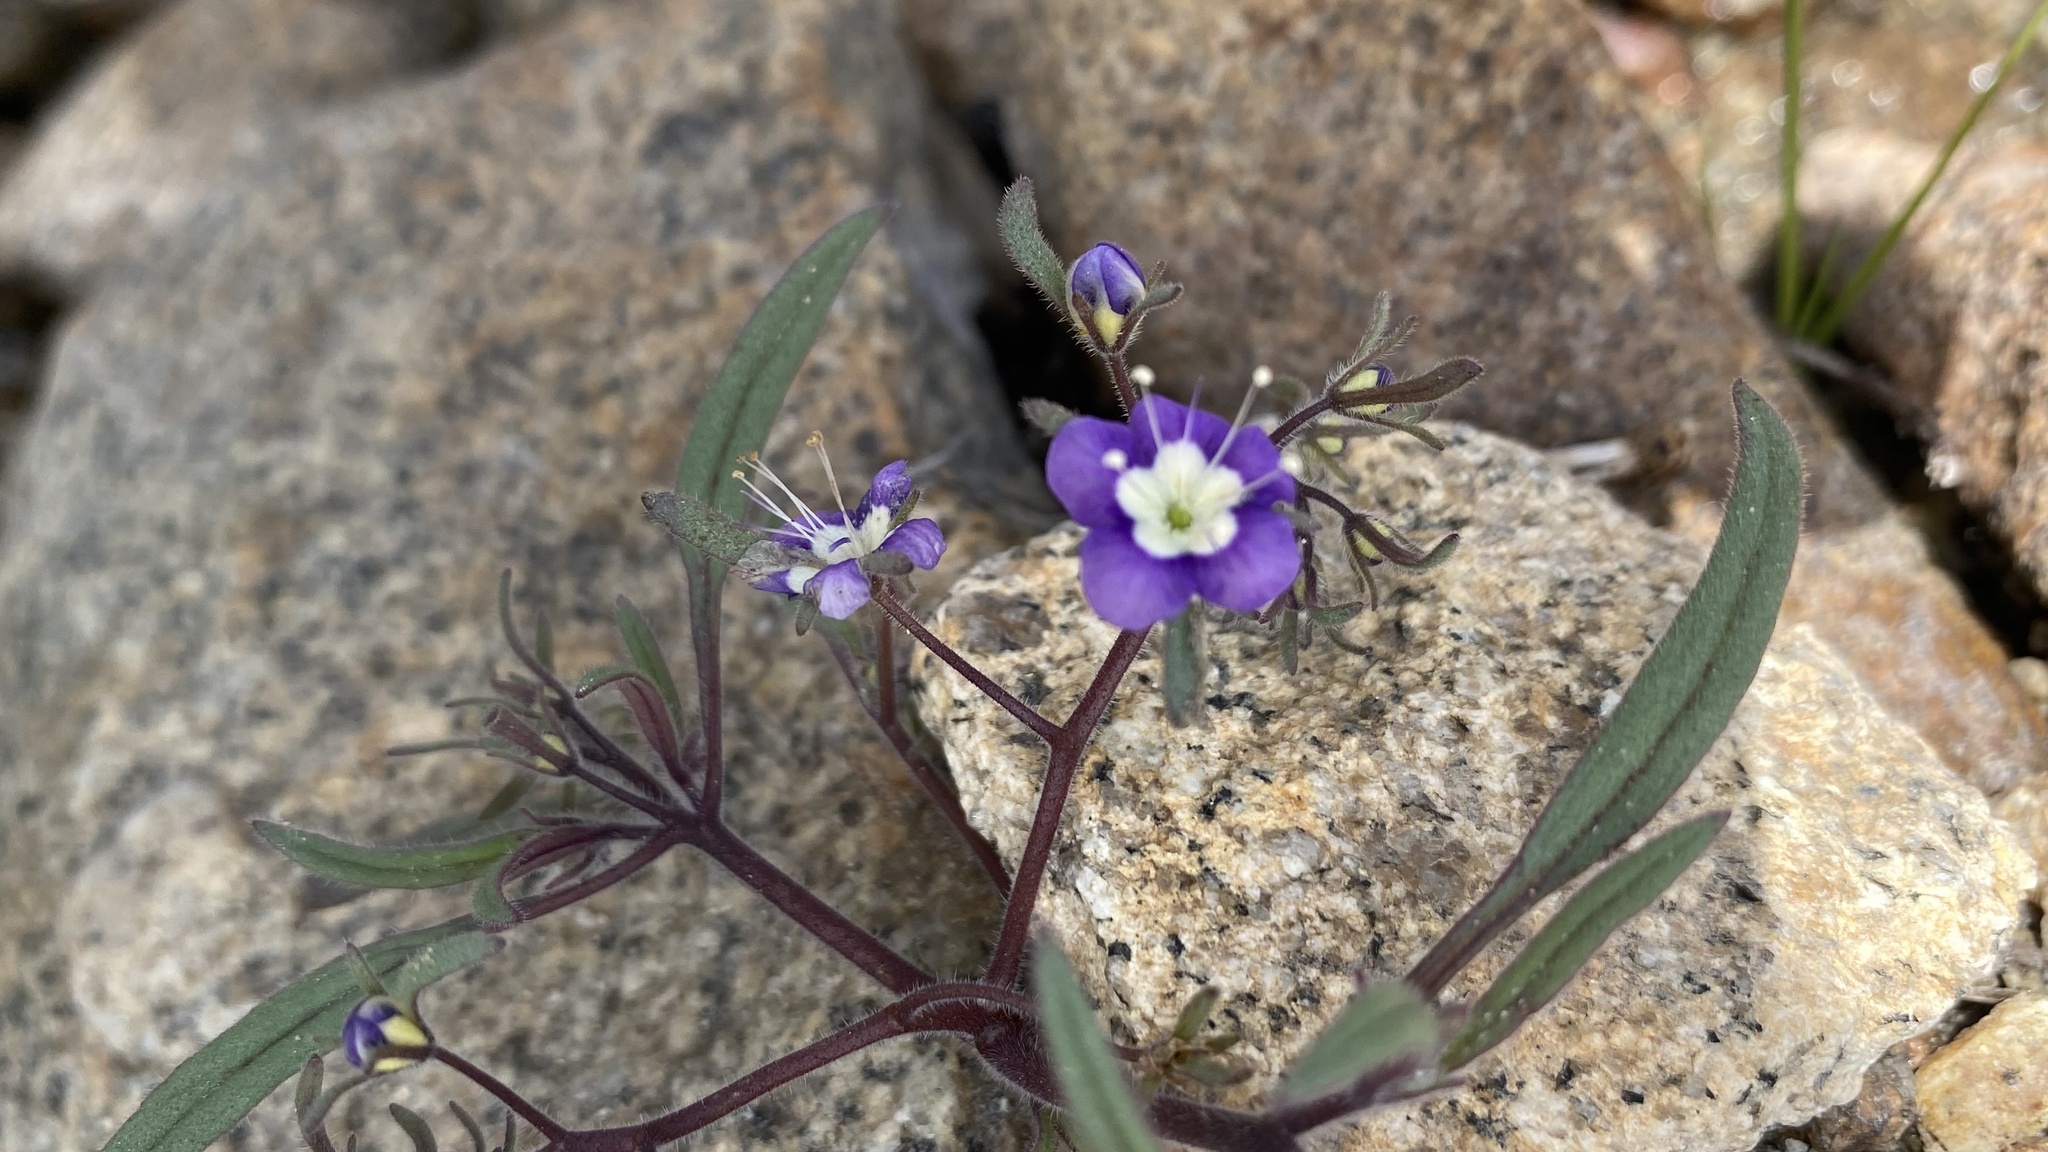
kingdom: Plantae
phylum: Tracheophyta
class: Magnoliopsida
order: Boraginales
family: Hydrophyllaceae
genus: Phacelia
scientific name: Phacelia orogenes
